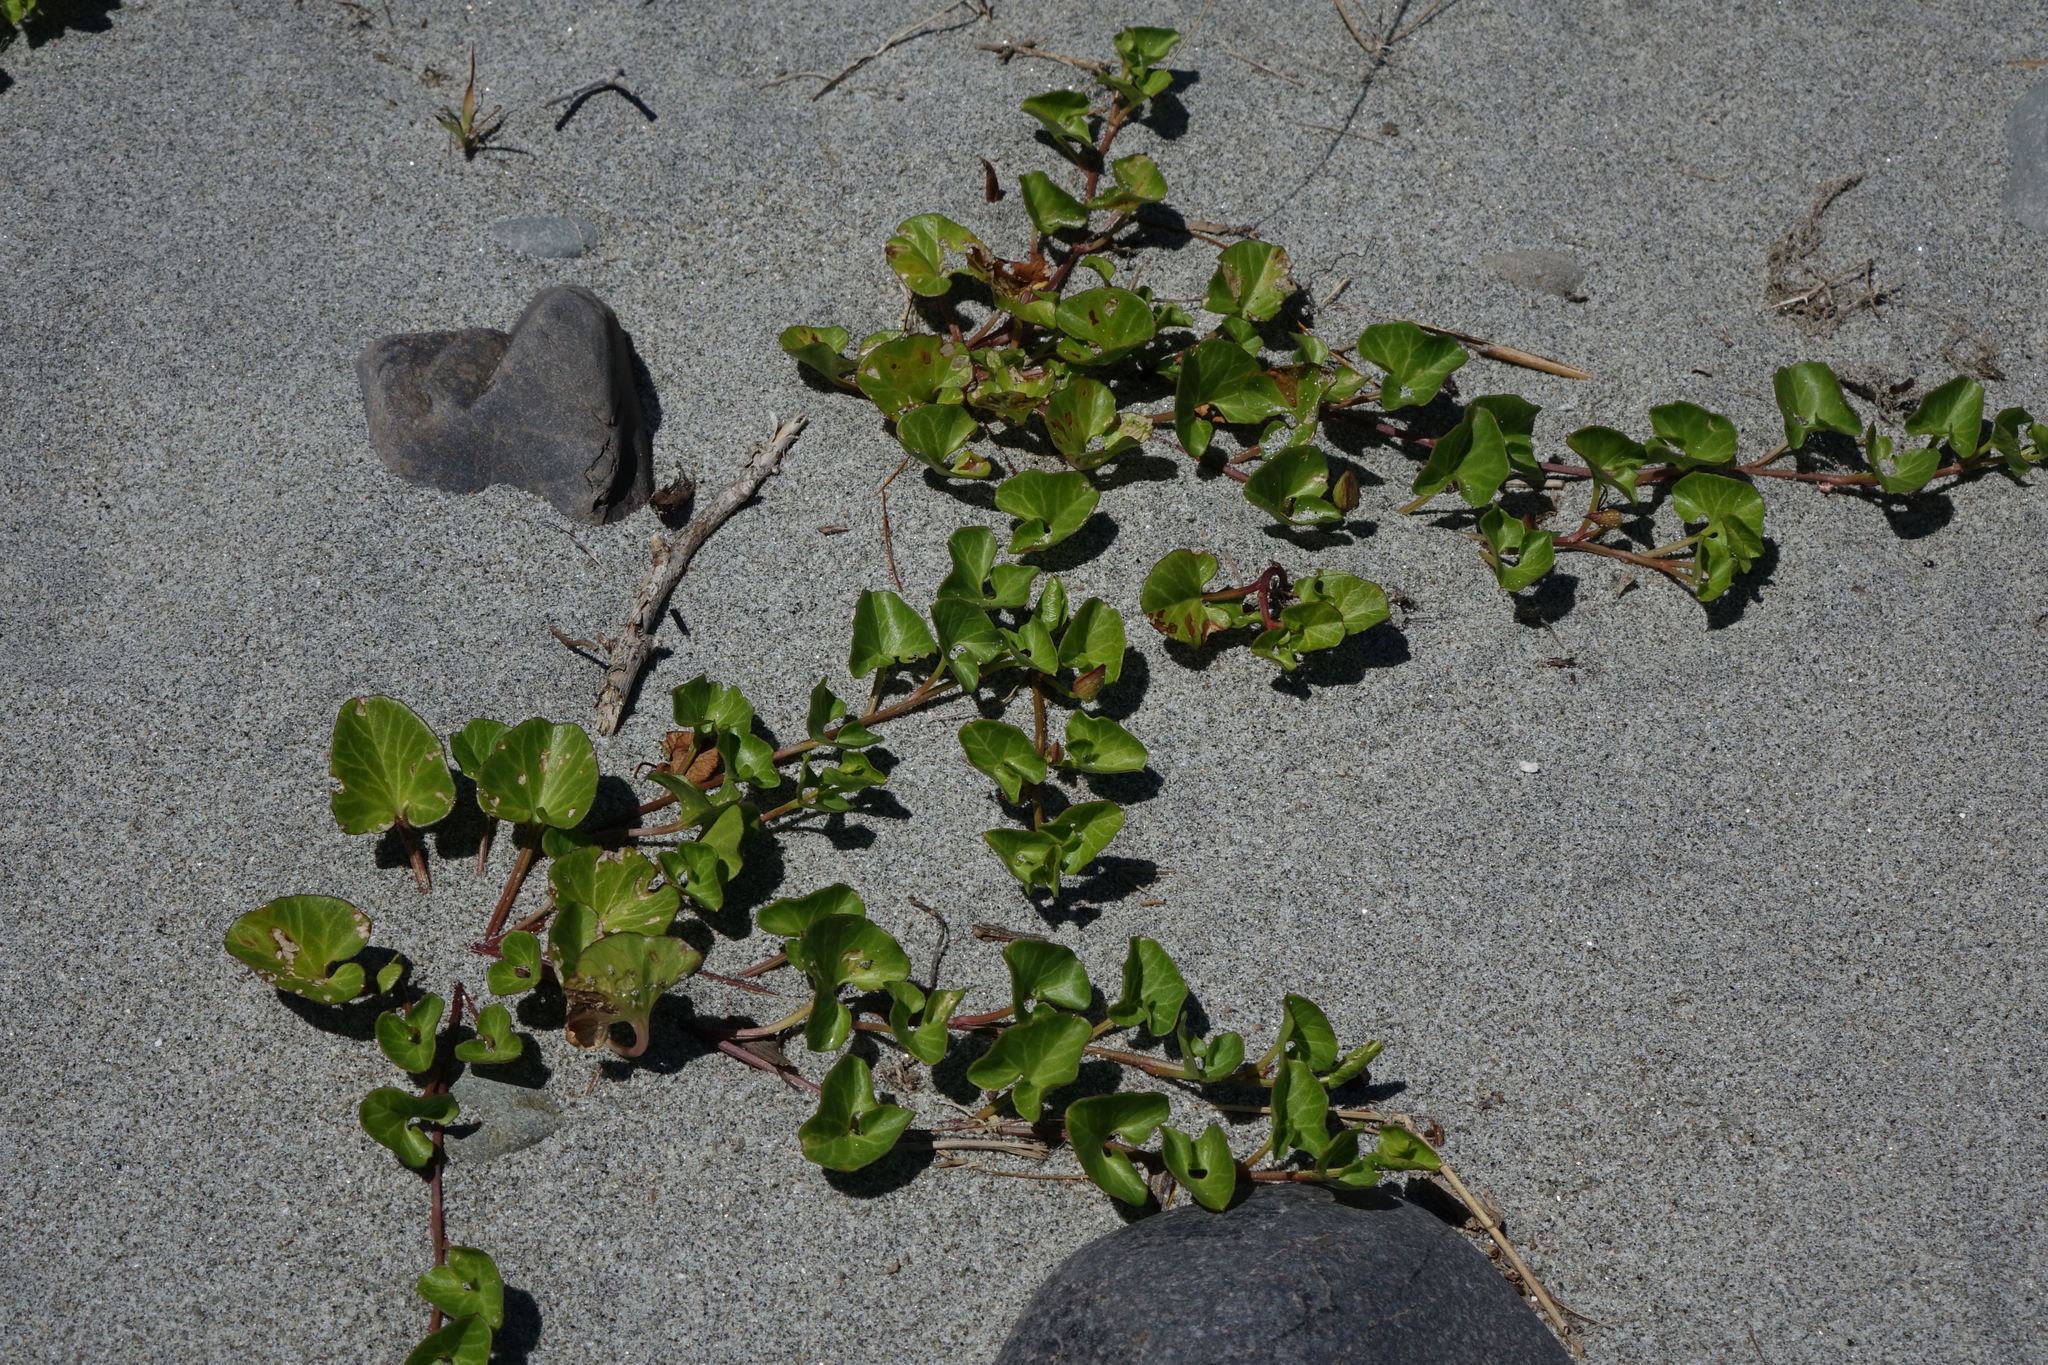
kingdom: Plantae
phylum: Tracheophyta
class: Magnoliopsida
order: Solanales
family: Convolvulaceae
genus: Calystegia
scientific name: Calystegia soldanella
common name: Sea bindweed
